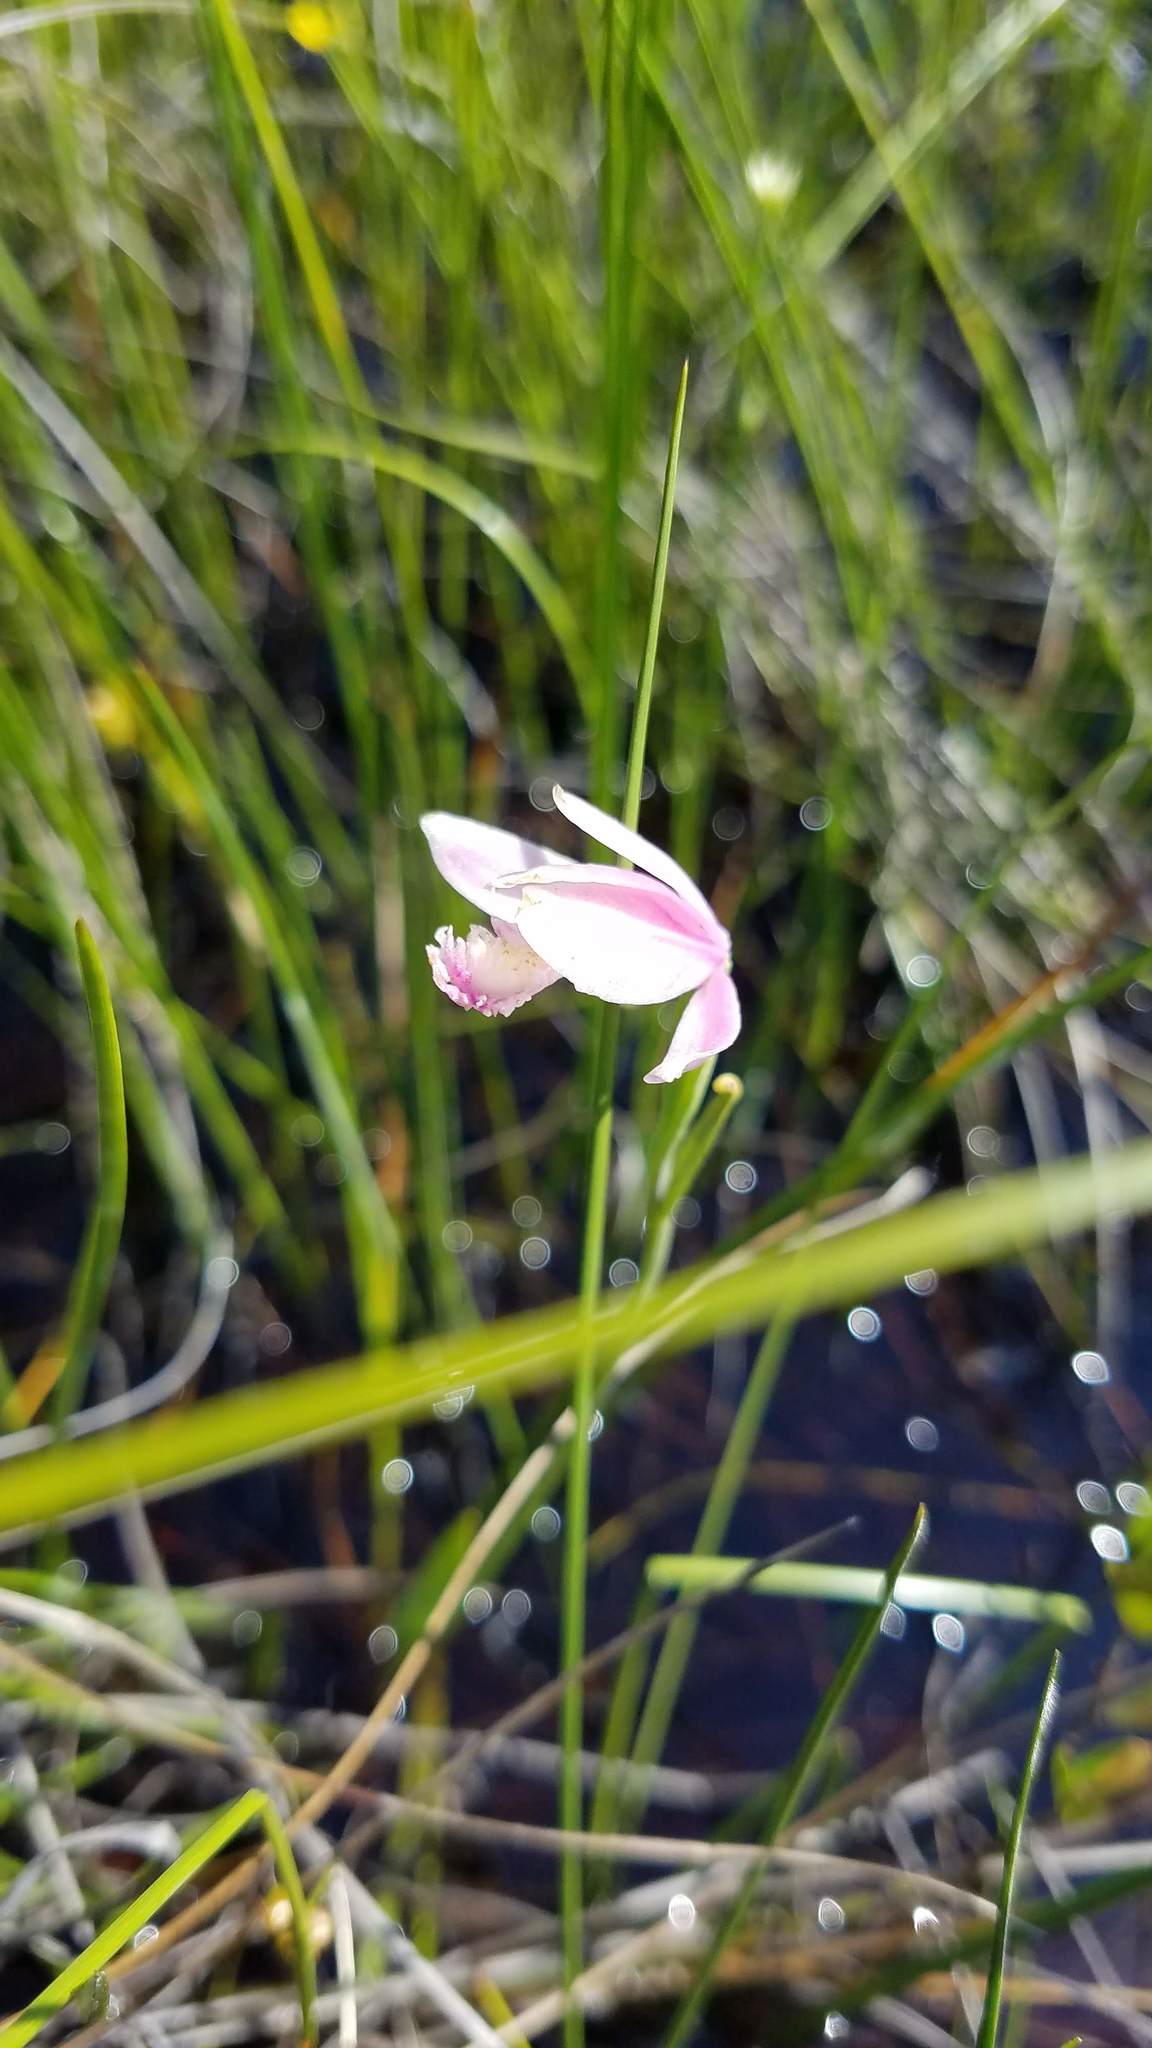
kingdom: Plantae
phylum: Tracheophyta
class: Liliopsida
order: Asparagales
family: Orchidaceae
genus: Pogonia
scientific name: Pogonia ophioglossoides
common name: Rose pogonia
